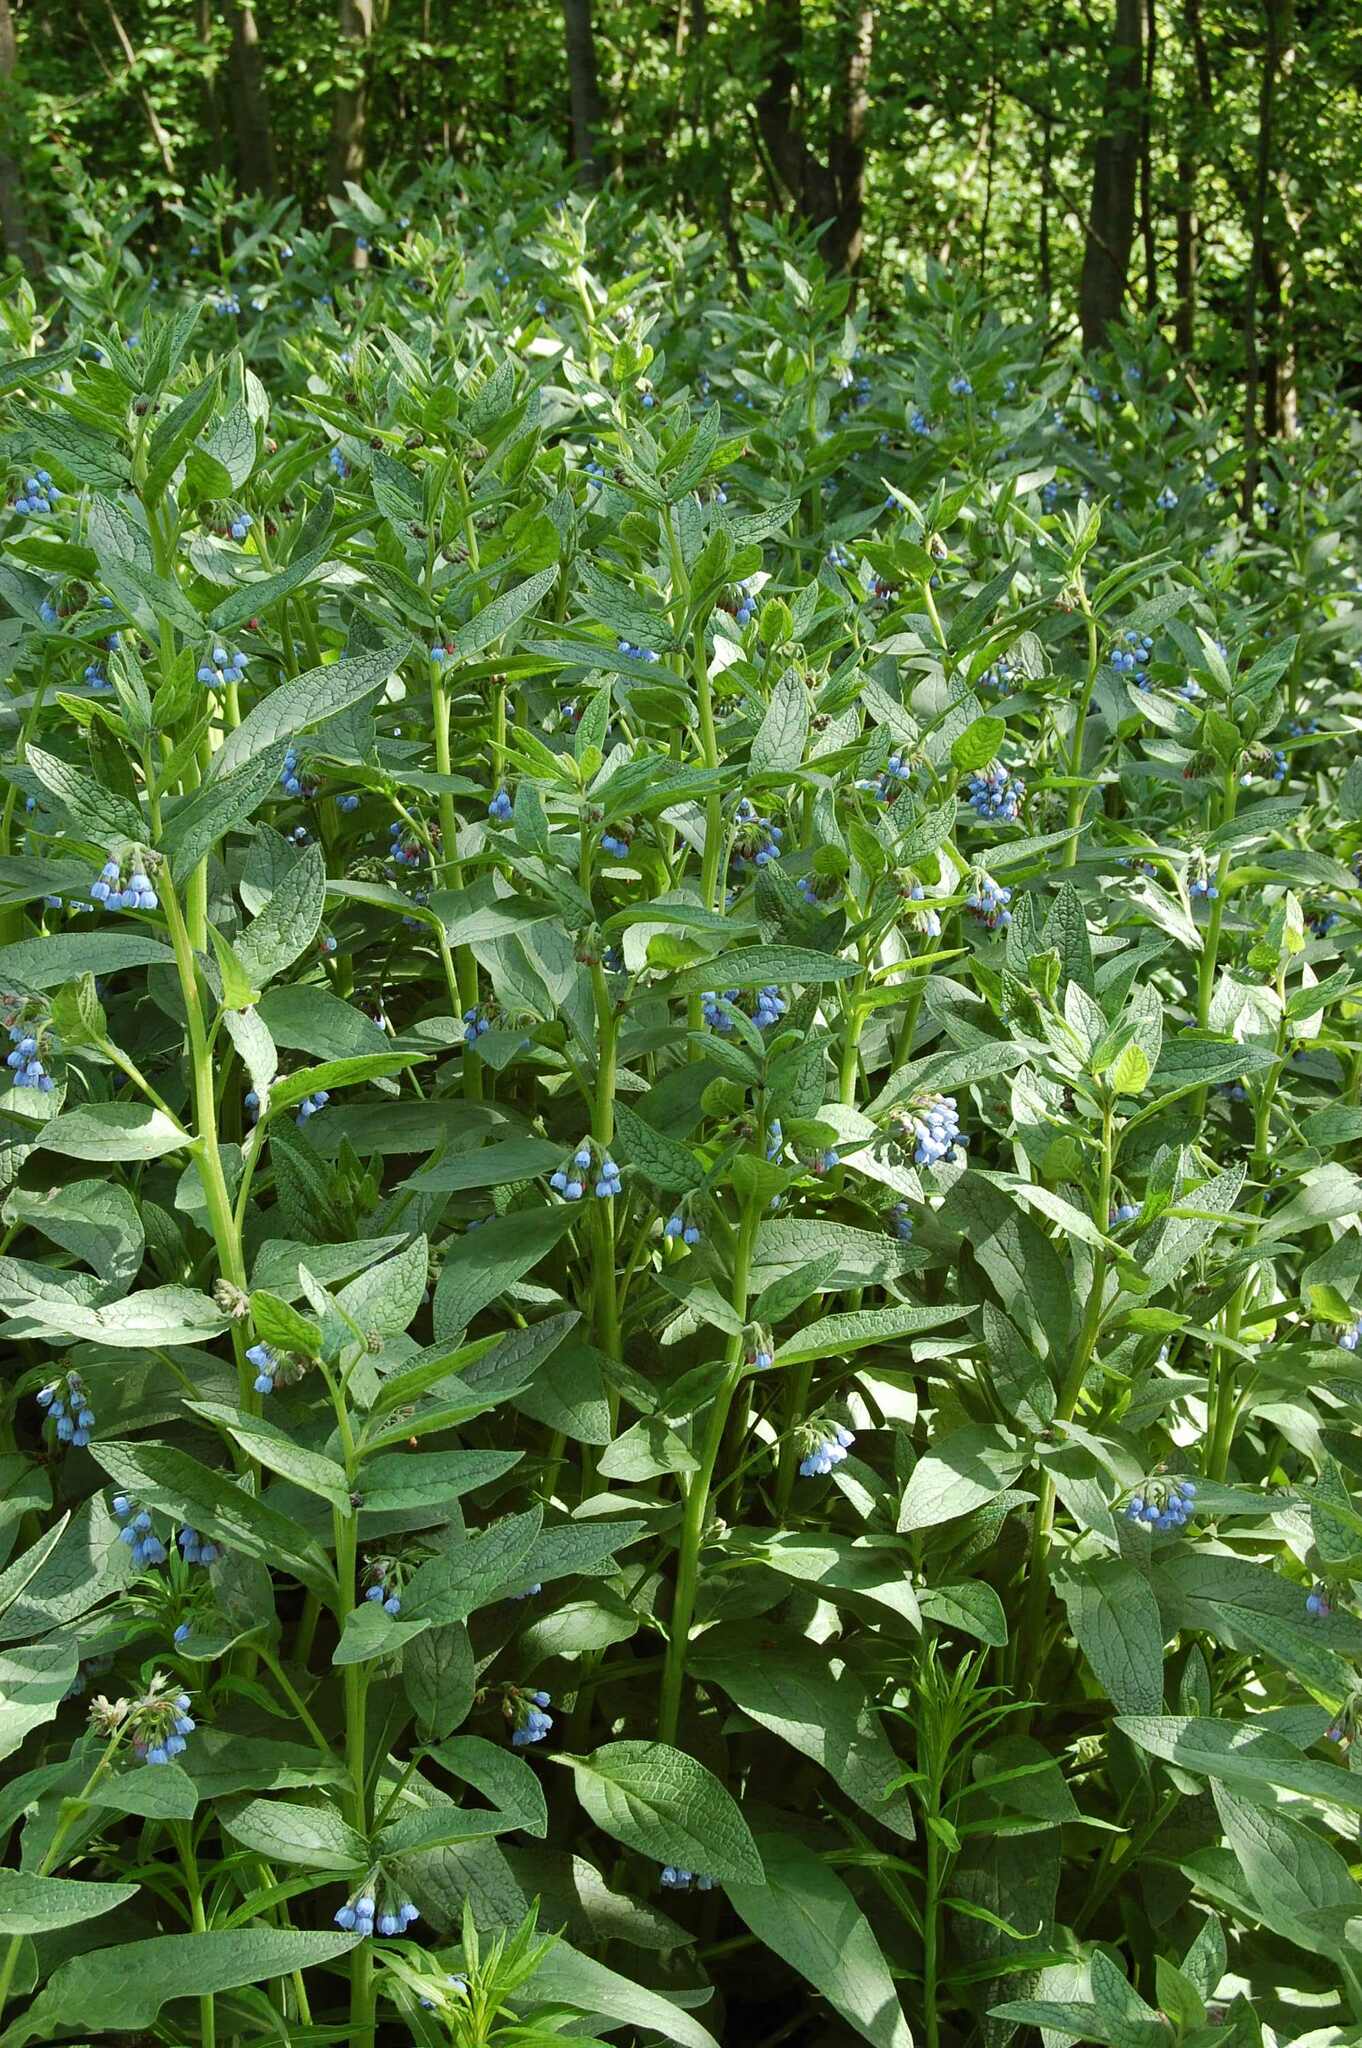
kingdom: Plantae
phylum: Tracheophyta
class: Magnoliopsida
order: Boraginales
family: Boraginaceae
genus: Symphytum
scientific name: Symphytum caucasicum
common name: Caucasian comfrey
